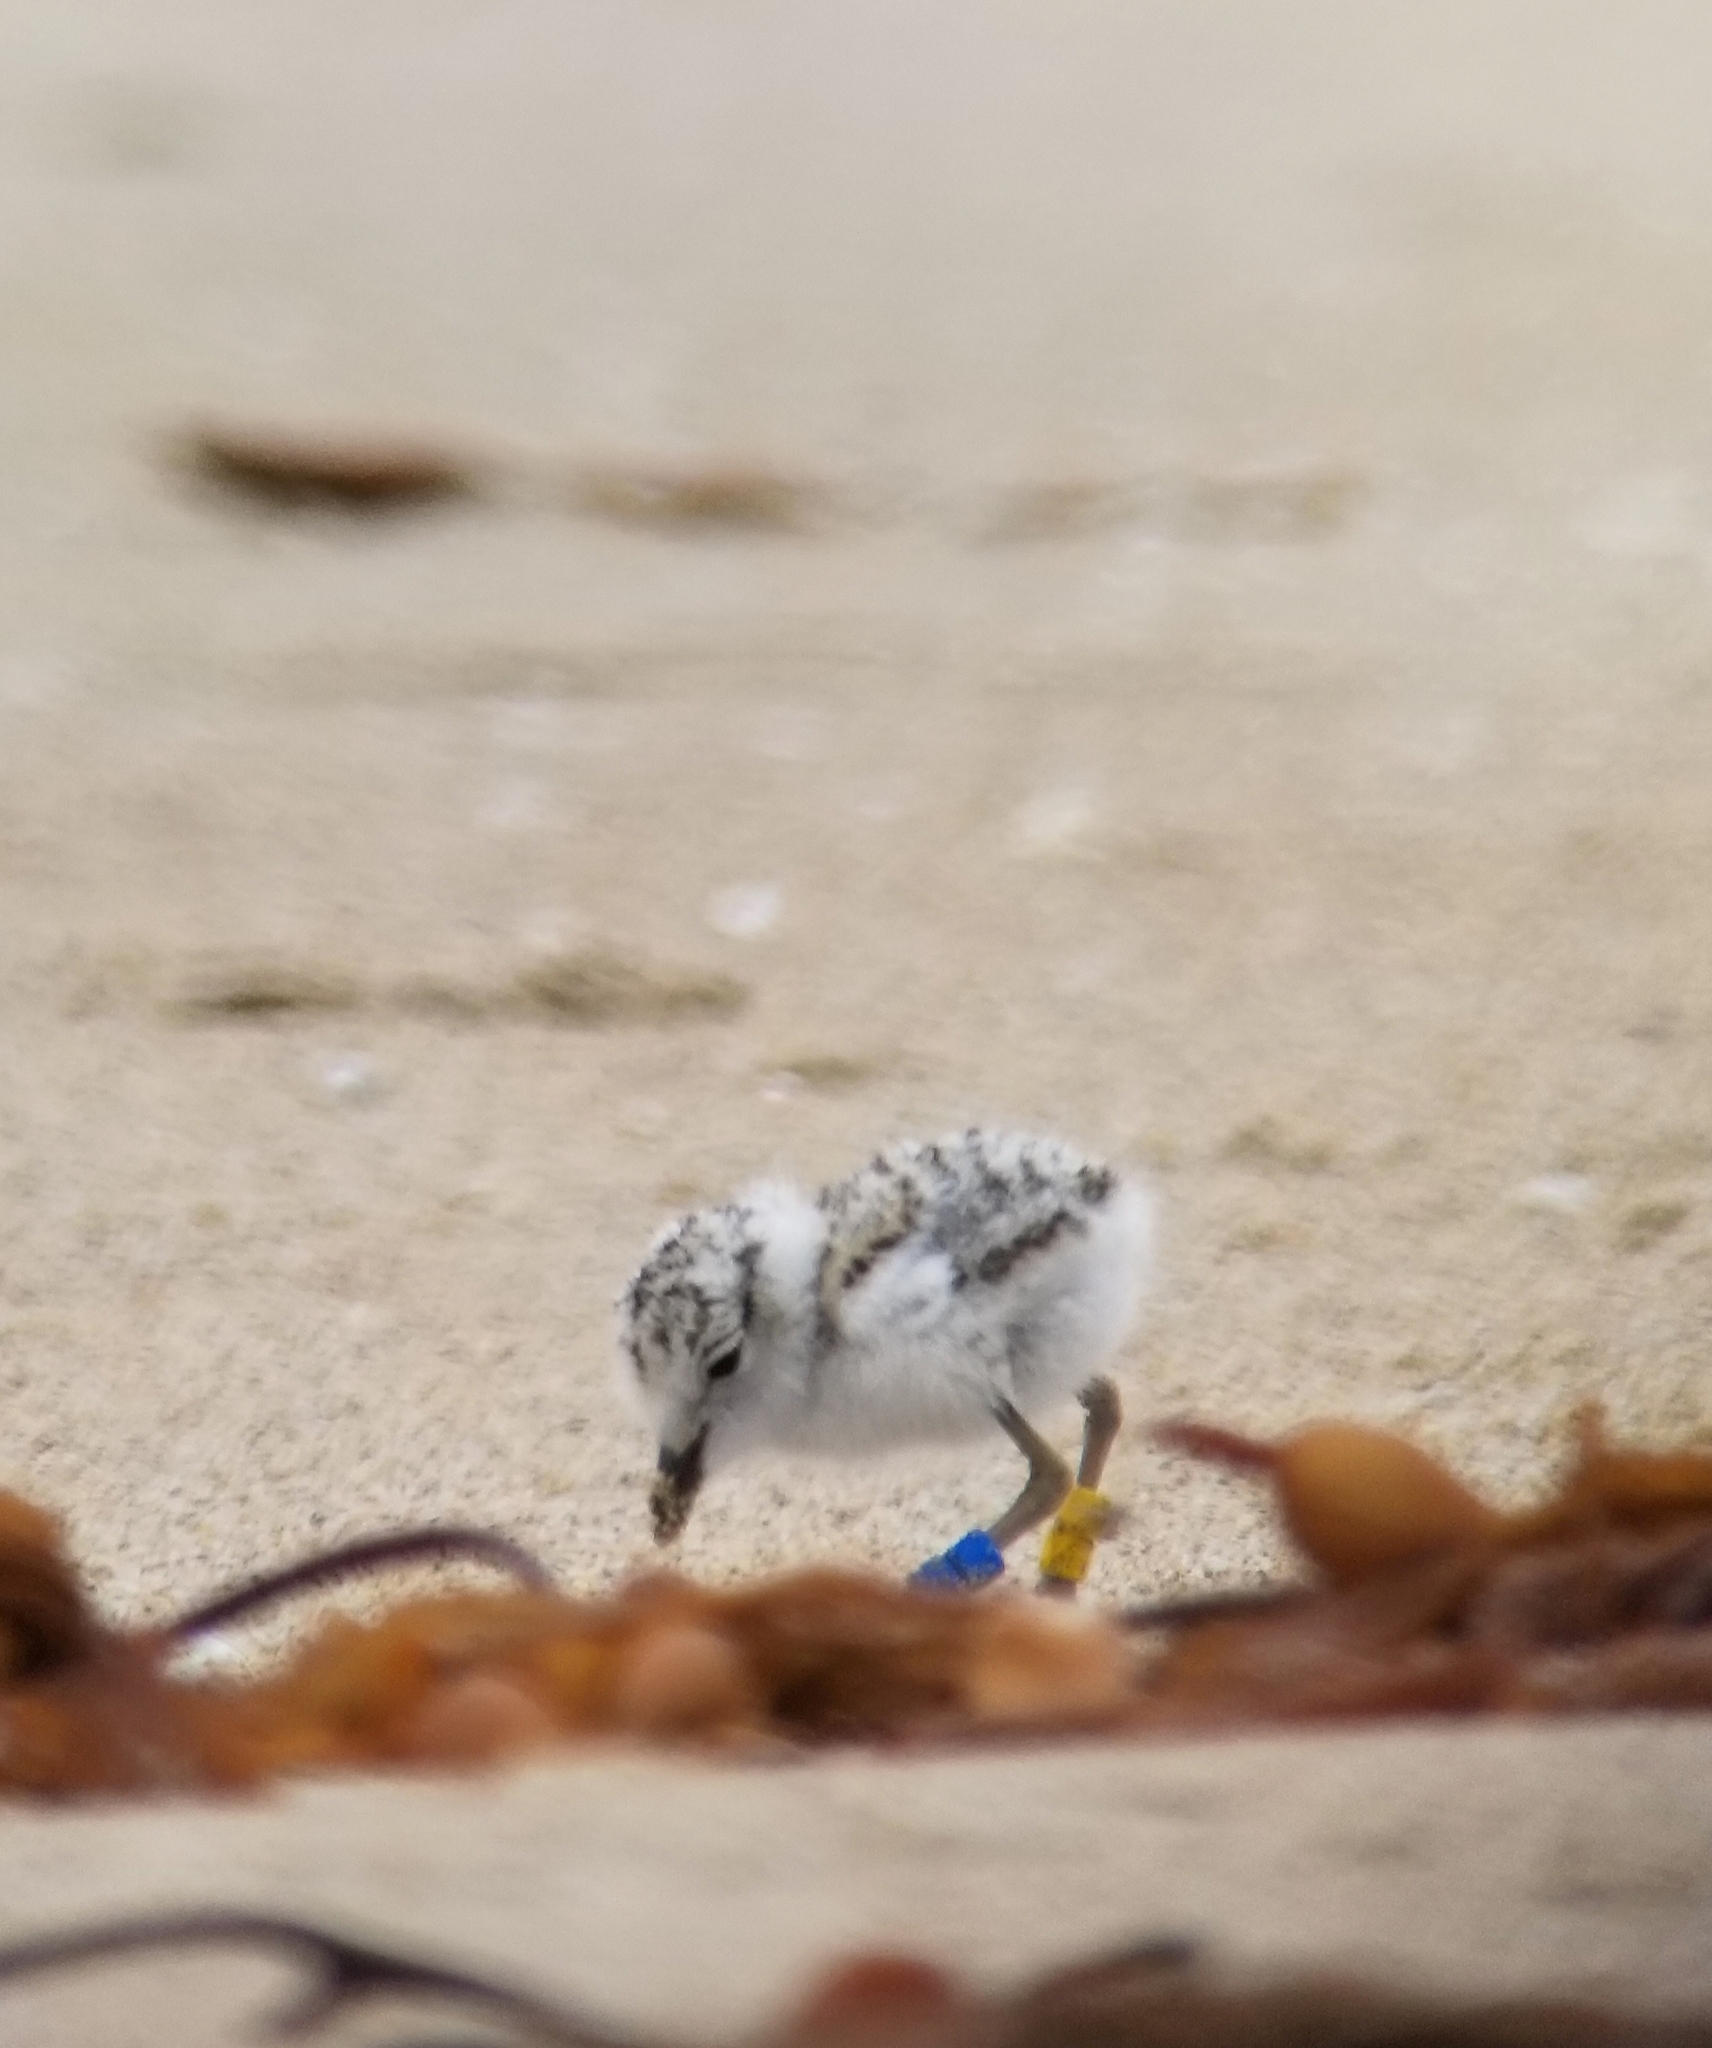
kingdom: Animalia
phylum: Chordata
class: Aves
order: Charadriiformes
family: Charadriidae
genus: Anarhynchus
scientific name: Anarhynchus
